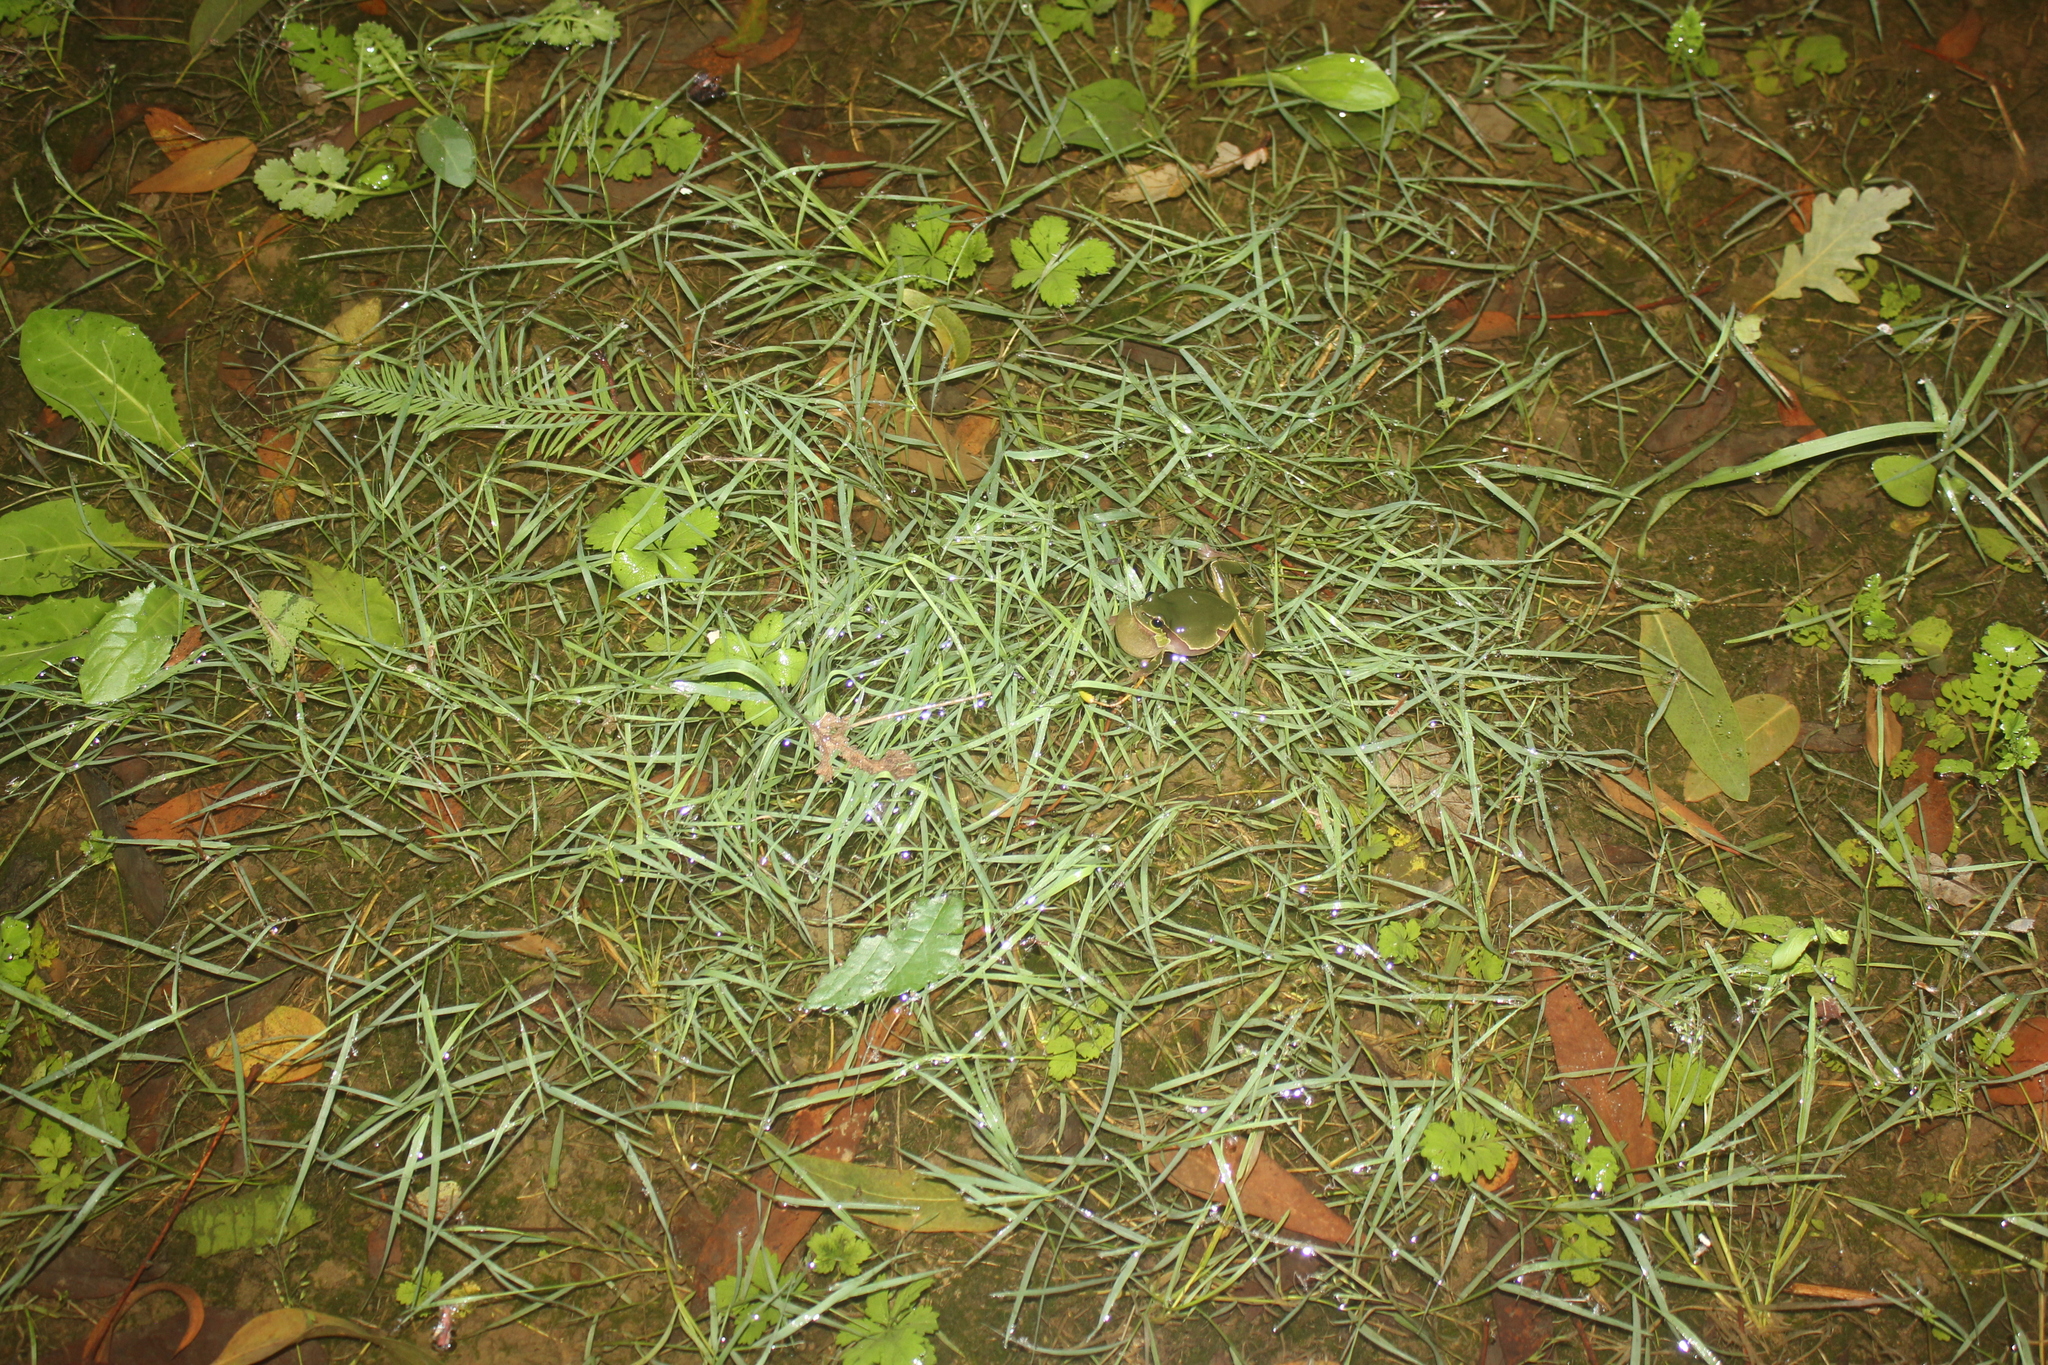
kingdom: Animalia
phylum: Chordata
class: Amphibia
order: Anura
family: Hylidae
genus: Hyla
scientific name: Hyla orientalis
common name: Caucasian treefrog
